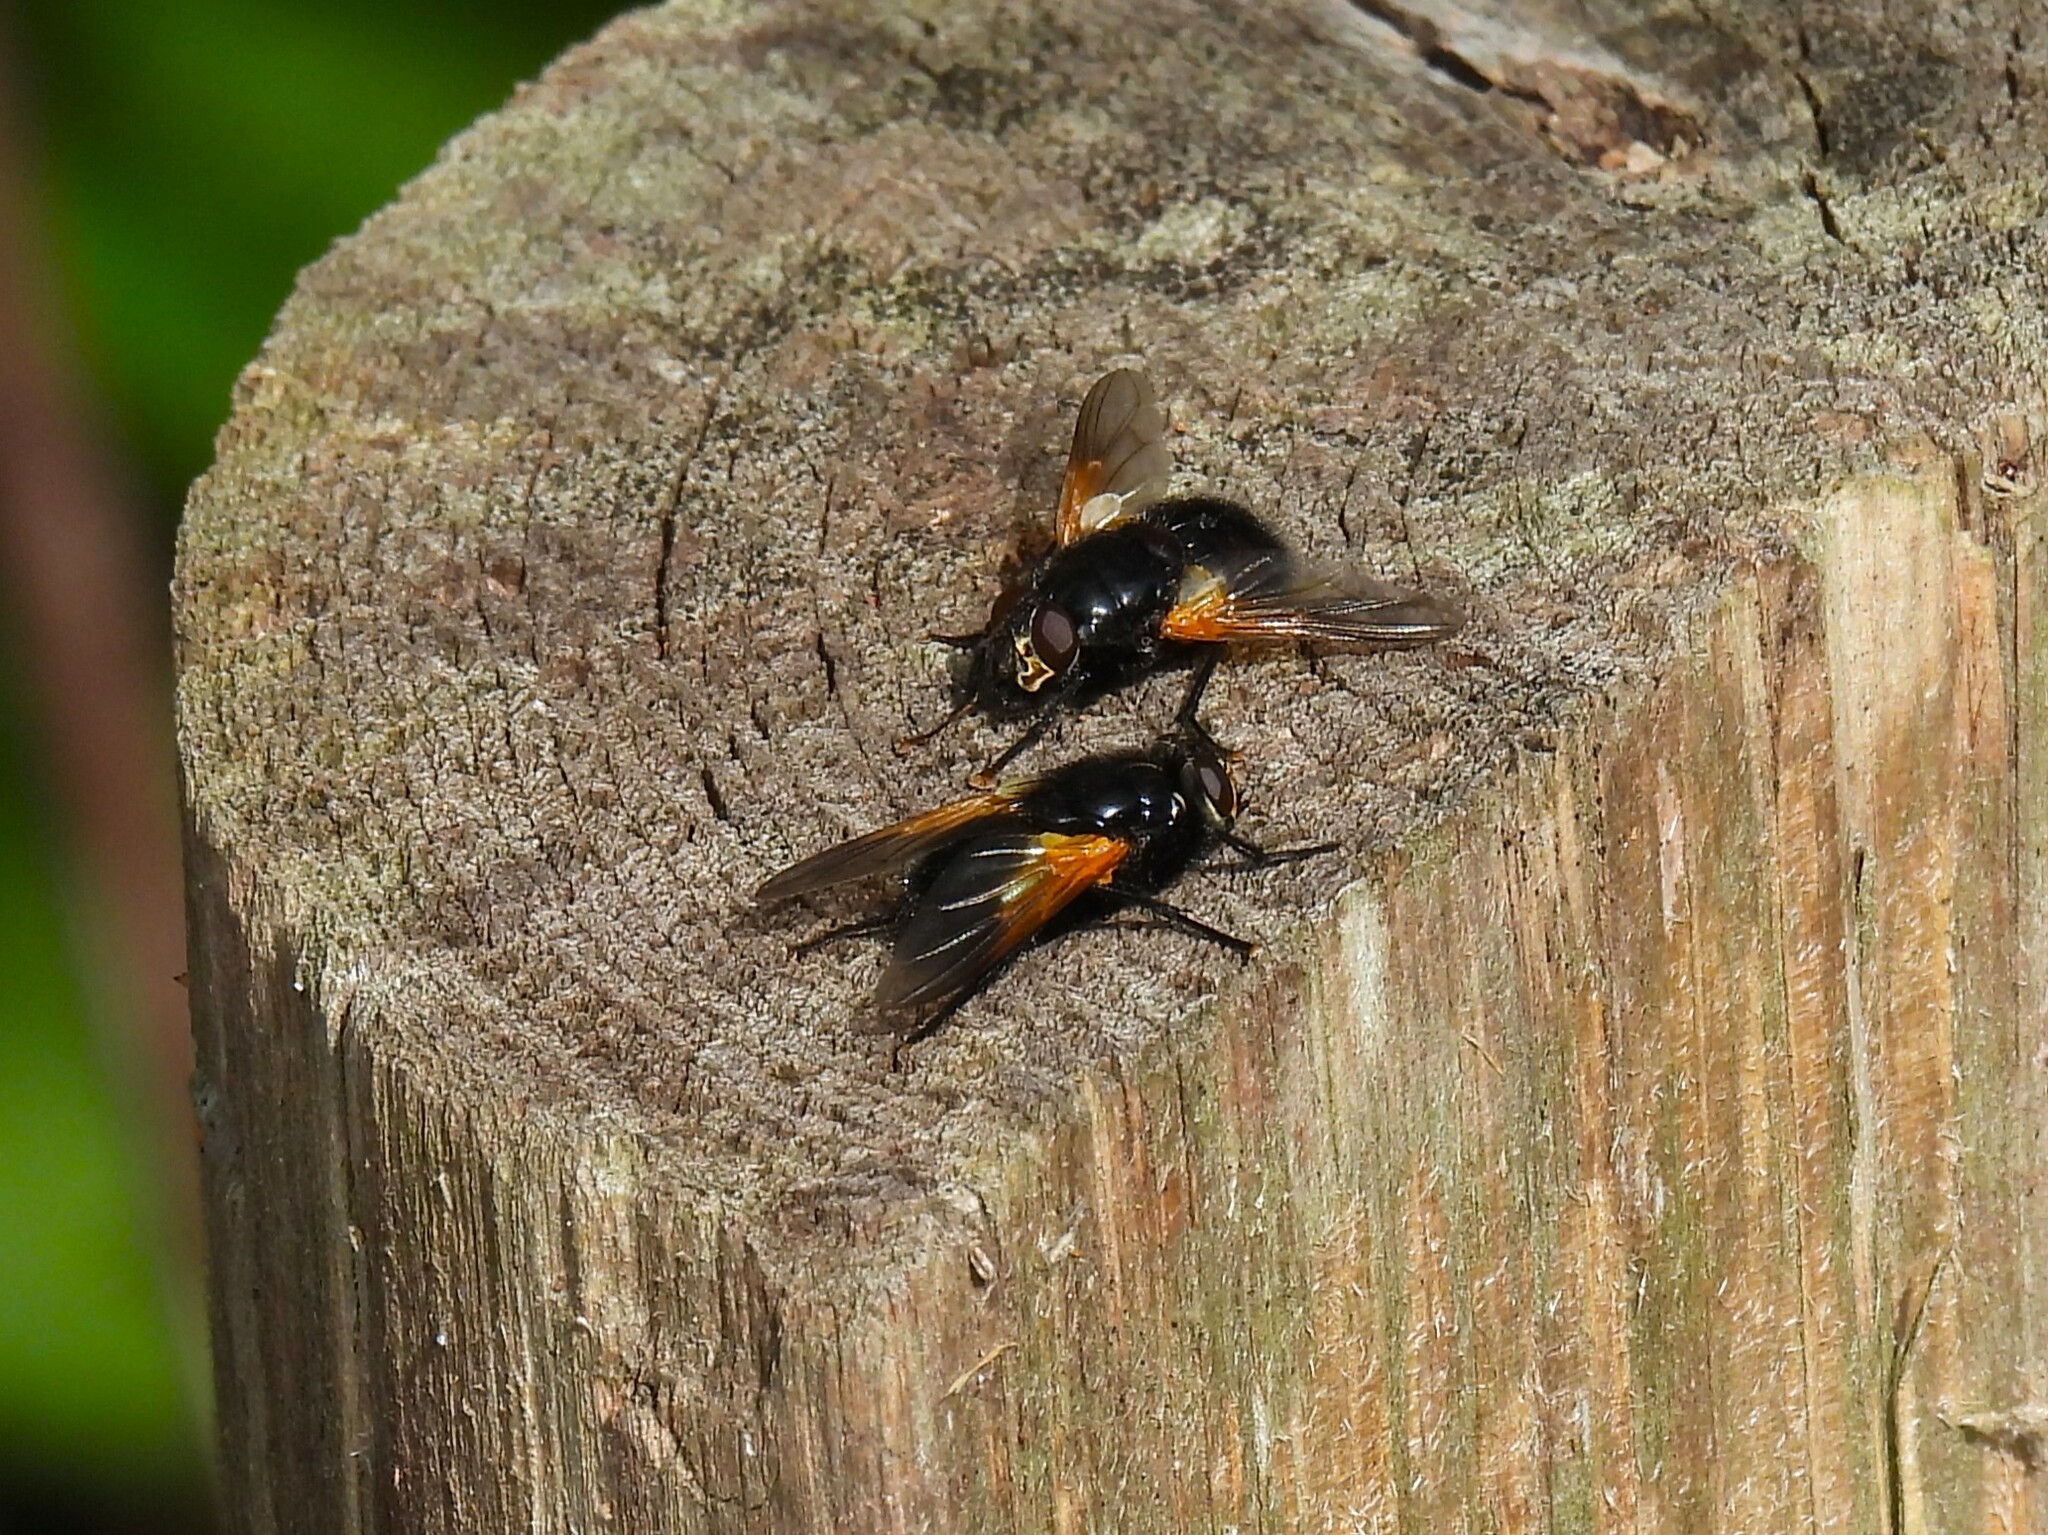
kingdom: Animalia
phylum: Arthropoda
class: Insecta
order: Diptera
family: Muscidae
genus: Mesembrina
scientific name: Mesembrina meridiana
